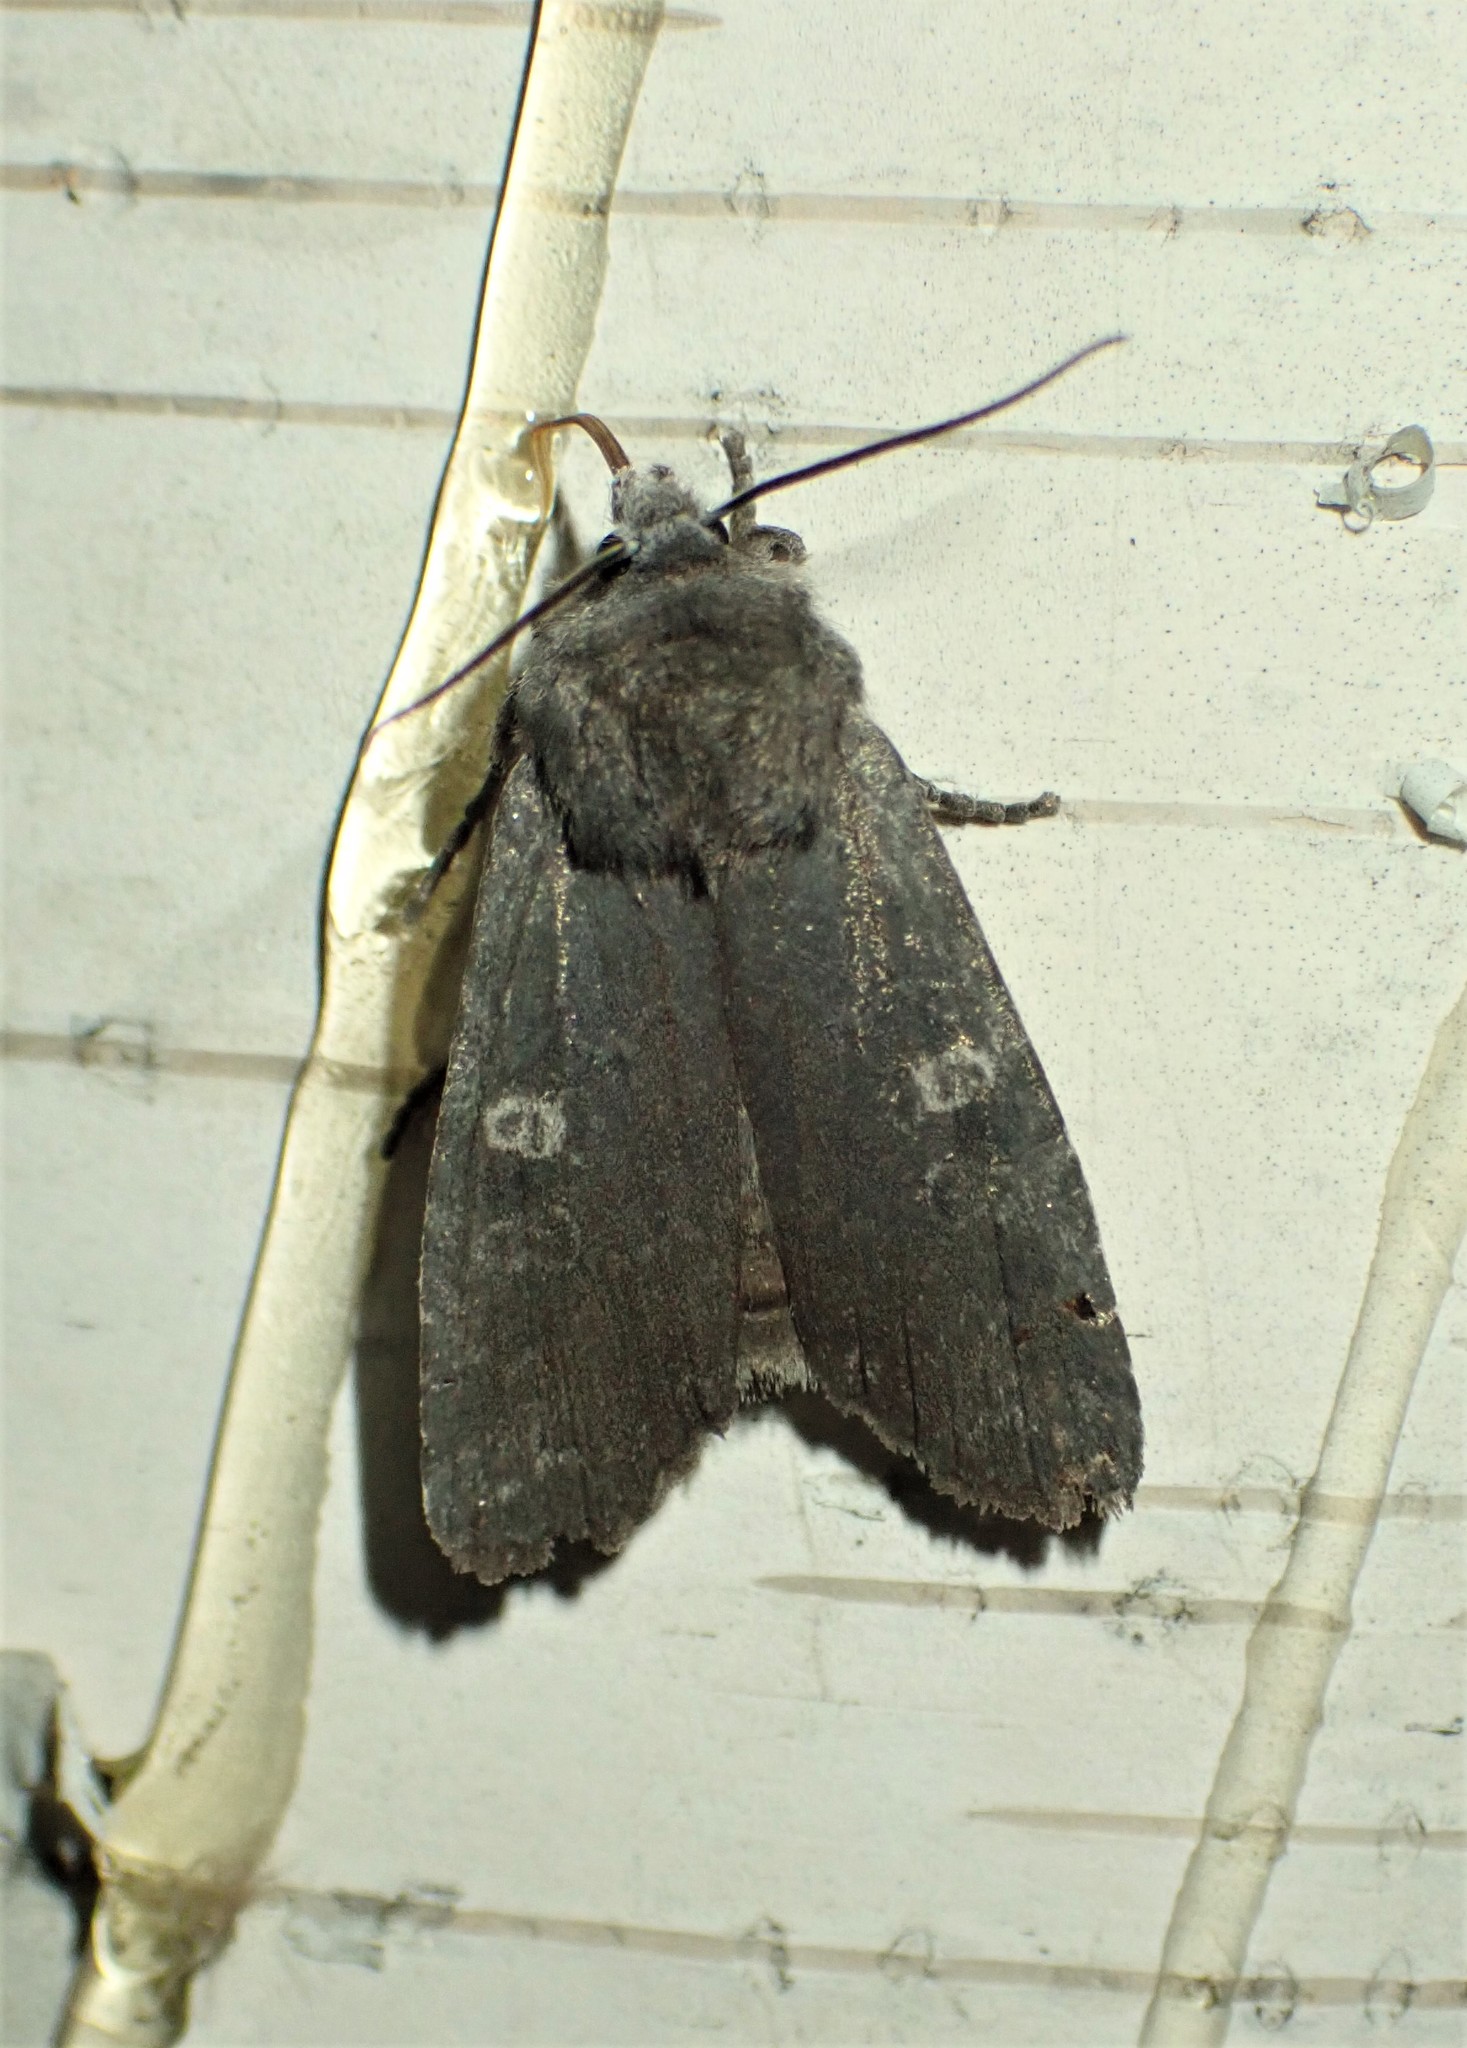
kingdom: Animalia
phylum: Arthropoda
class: Insecta
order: Lepidoptera
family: Noctuidae
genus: Lithophane
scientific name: Lithophane unimoda
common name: Dowdy pinion
